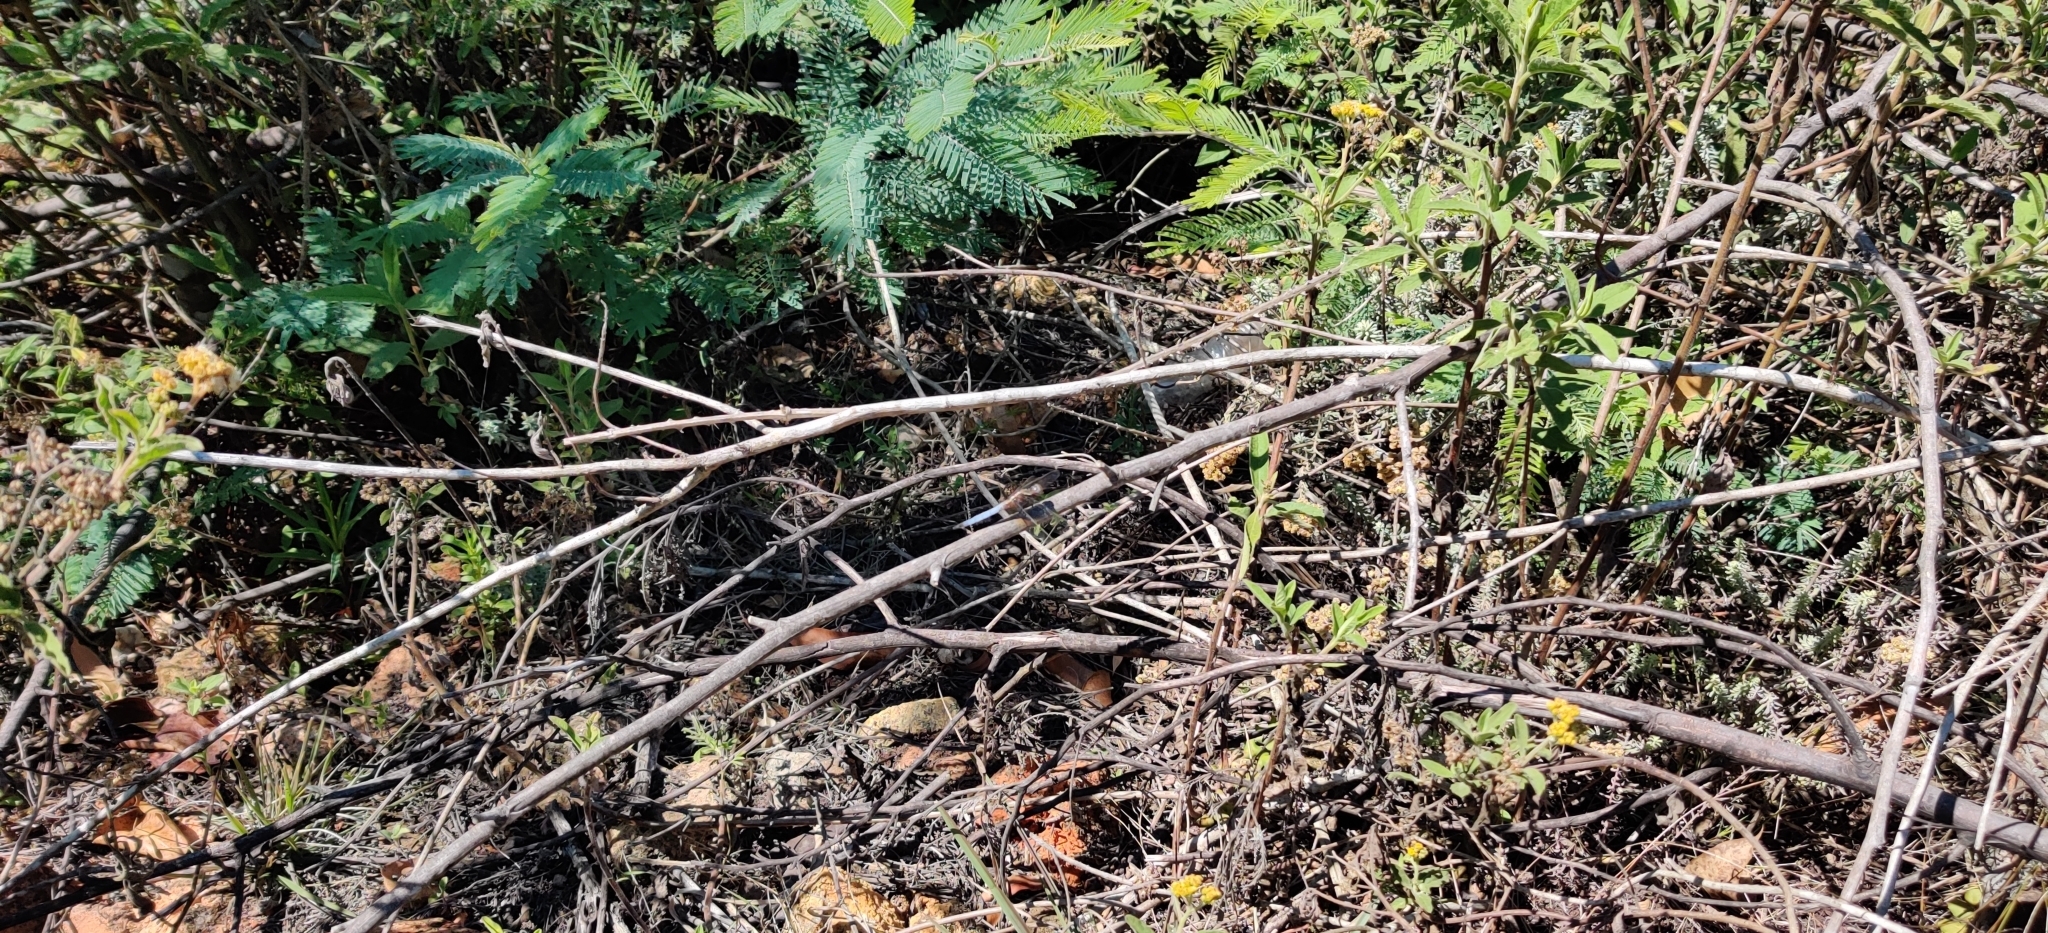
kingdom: Animalia
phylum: Arthropoda
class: Insecta
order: Odonata
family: Libellulidae
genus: Orthetrum
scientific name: Orthetrum azureum
